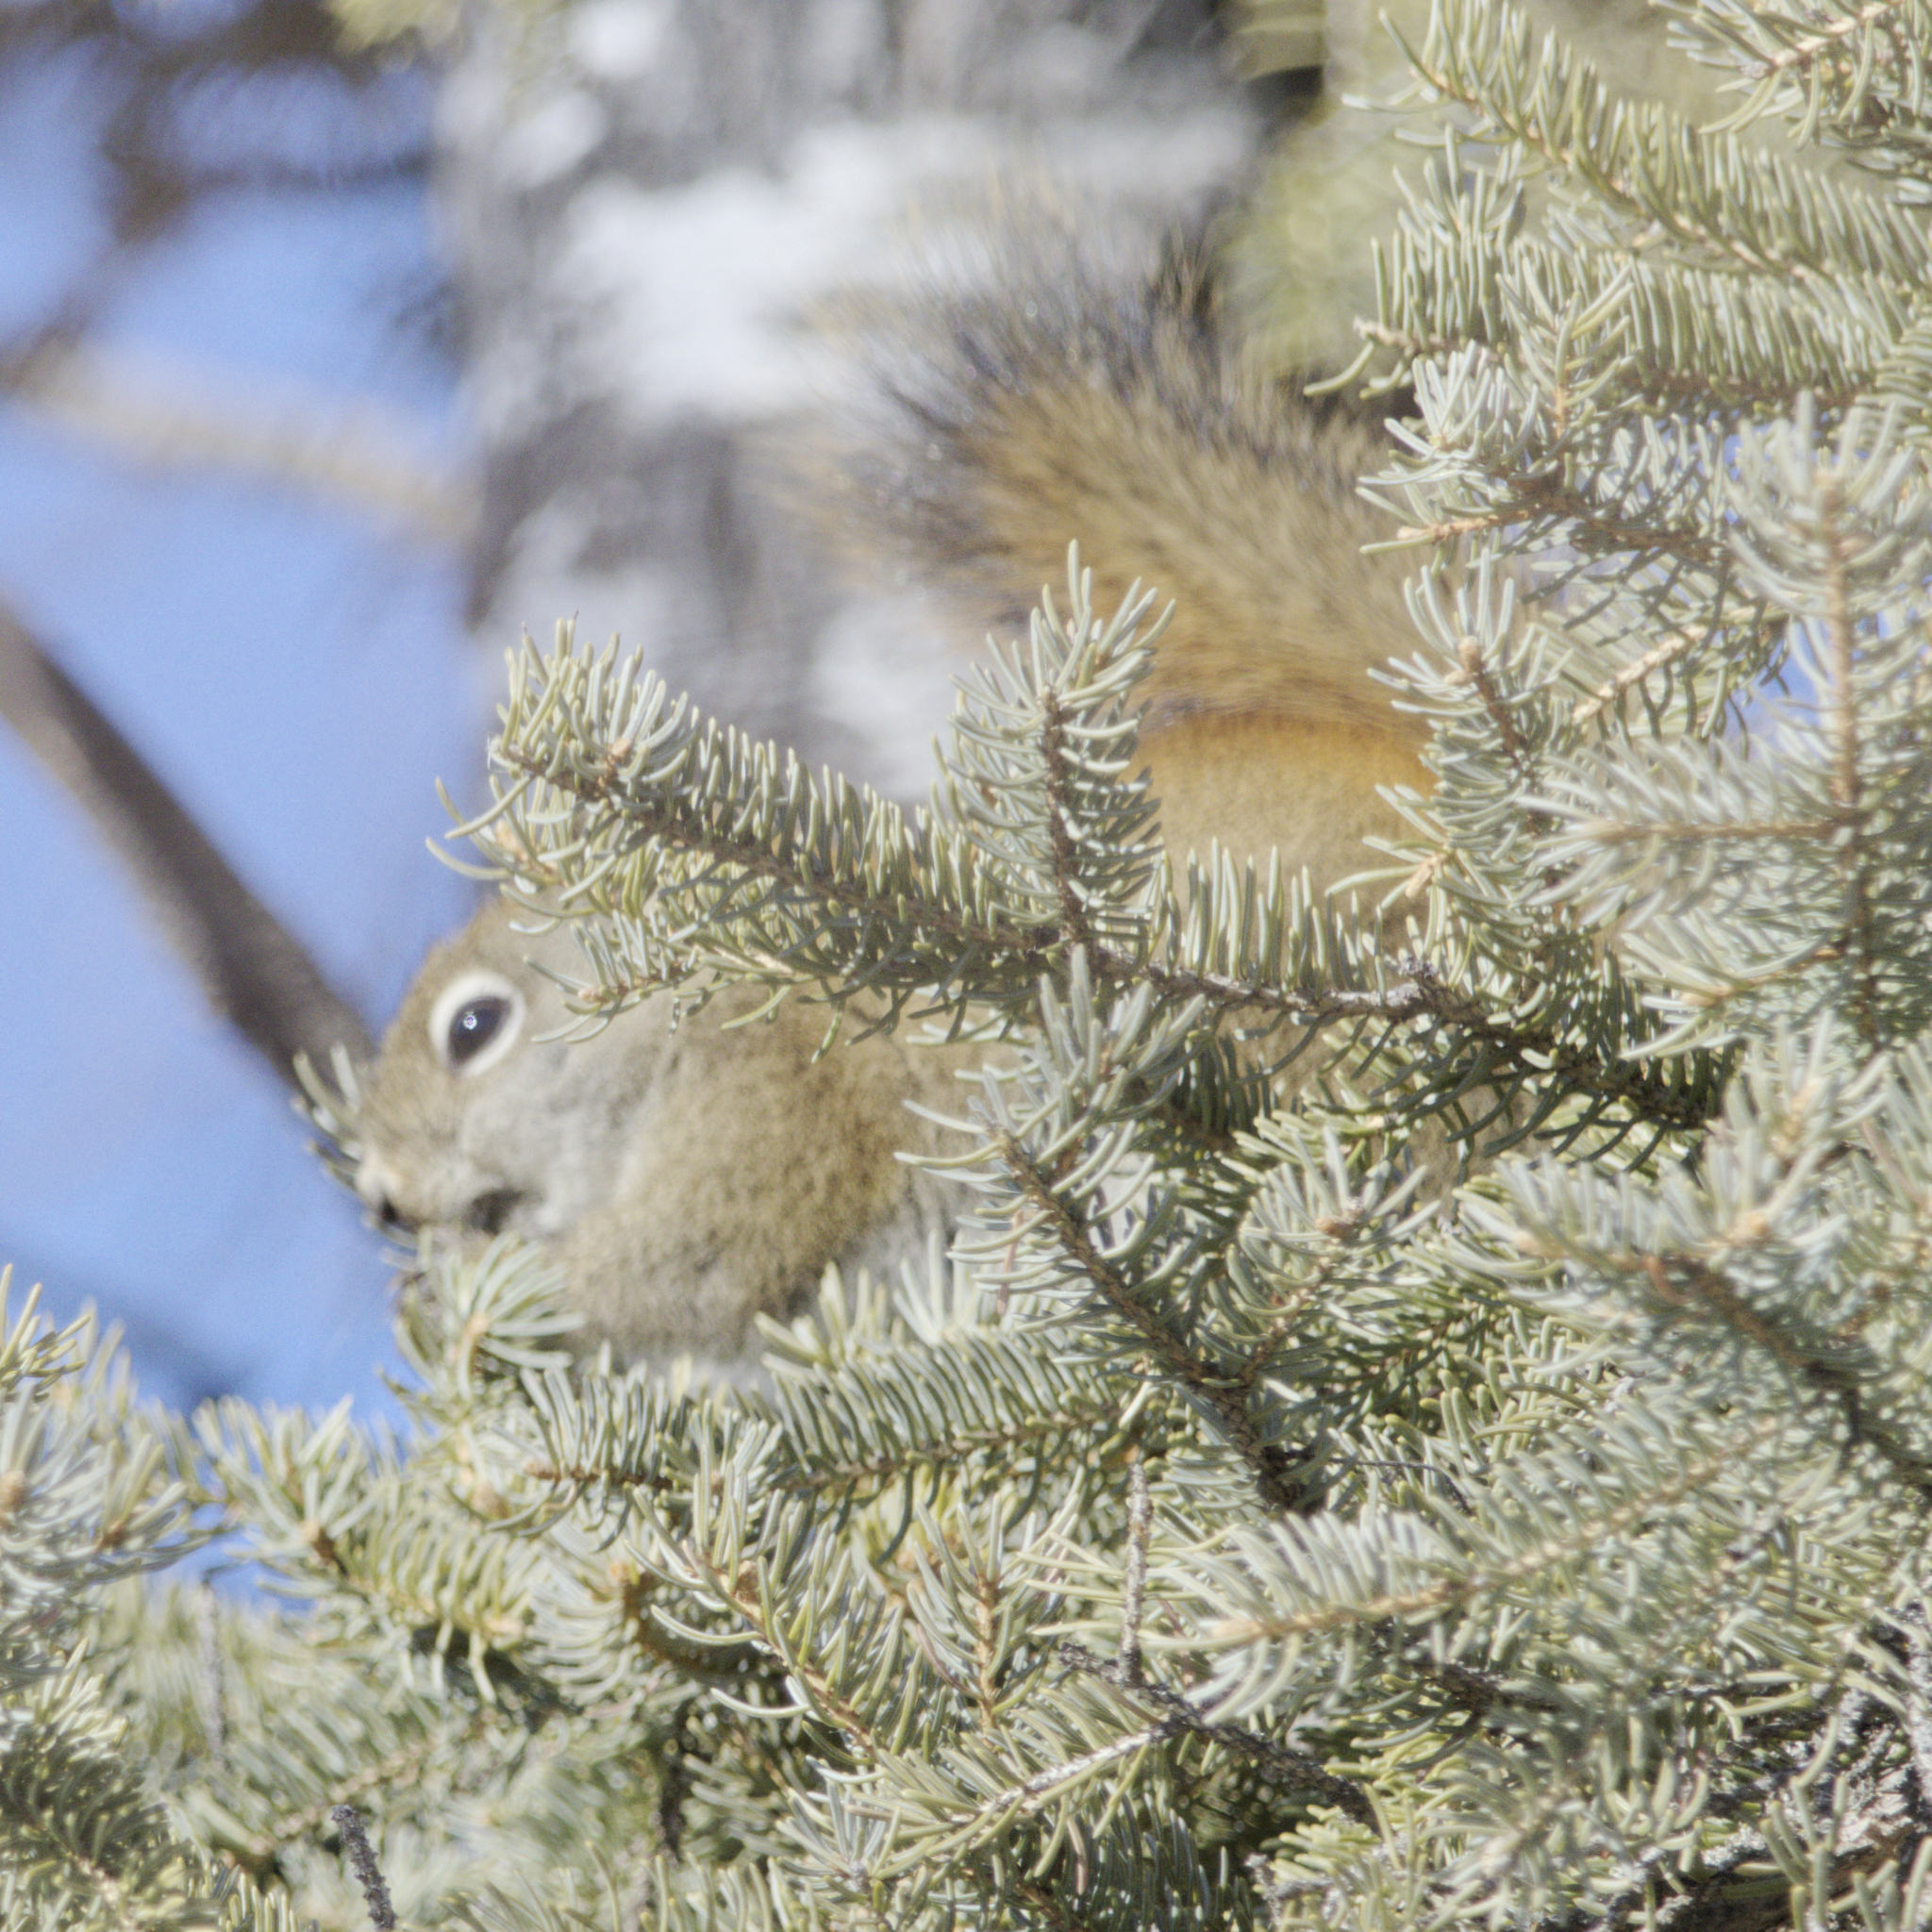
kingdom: Animalia
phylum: Chordata
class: Mammalia
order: Rodentia
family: Sciuridae
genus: Tamiasciurus
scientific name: Tamiasciurus hudsonicus
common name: Red squirrel
